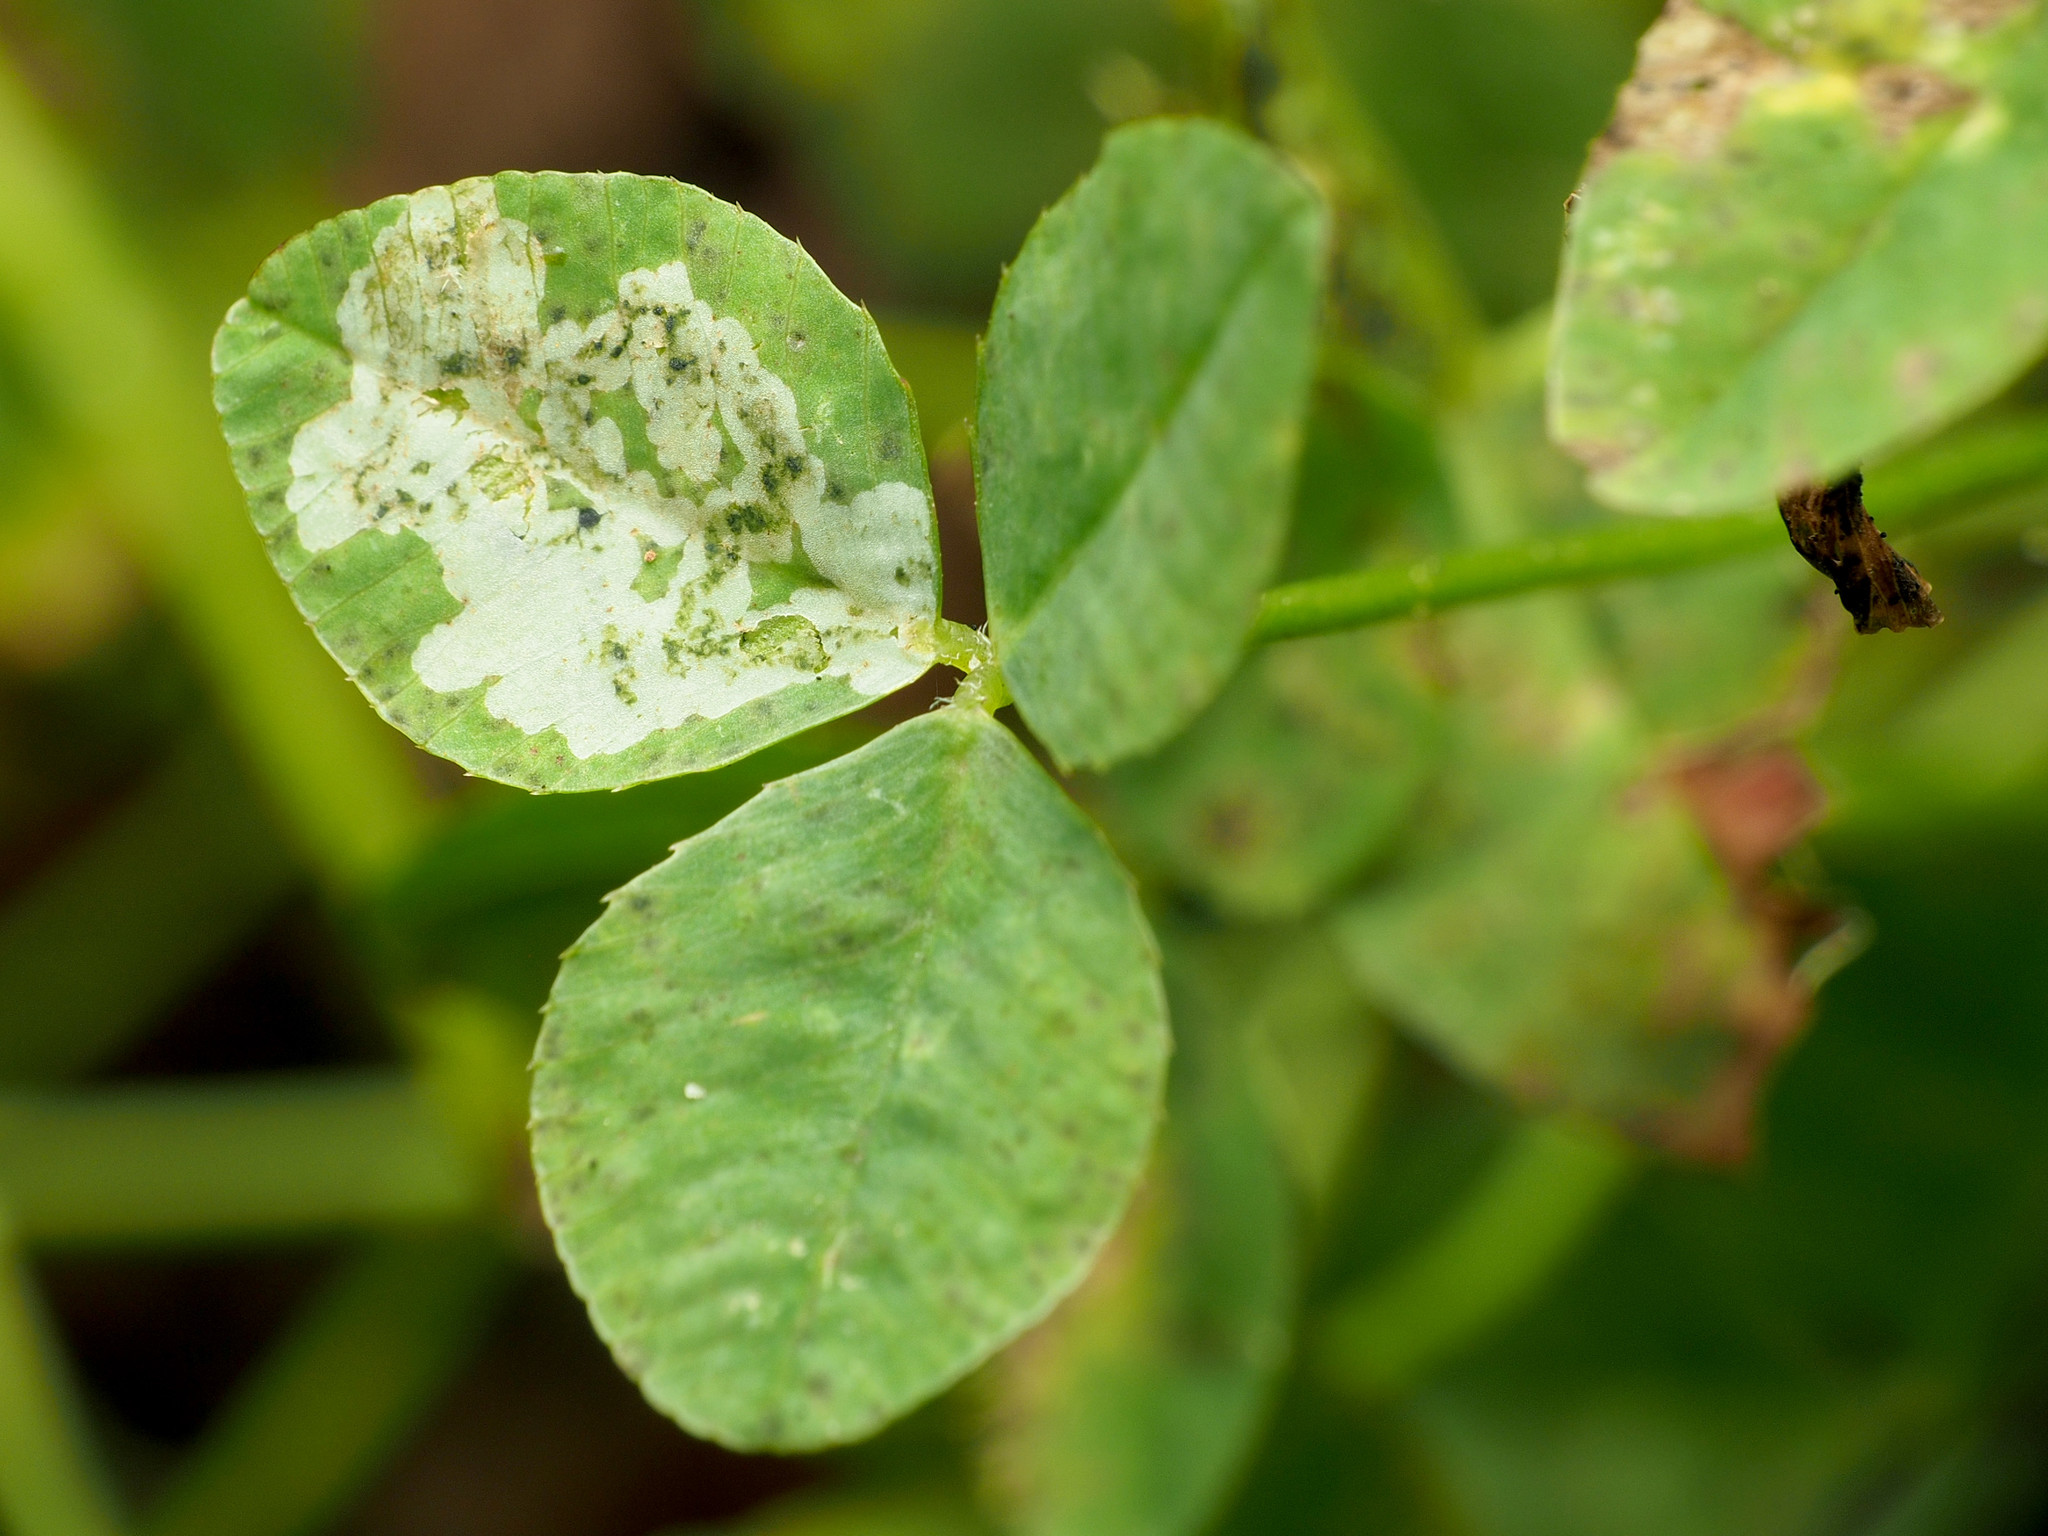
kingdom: Animalia
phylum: Arthropoda
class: Insecta
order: Diptera
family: Agromyzidae
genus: Liriomyza
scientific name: Liriomyza fricki
